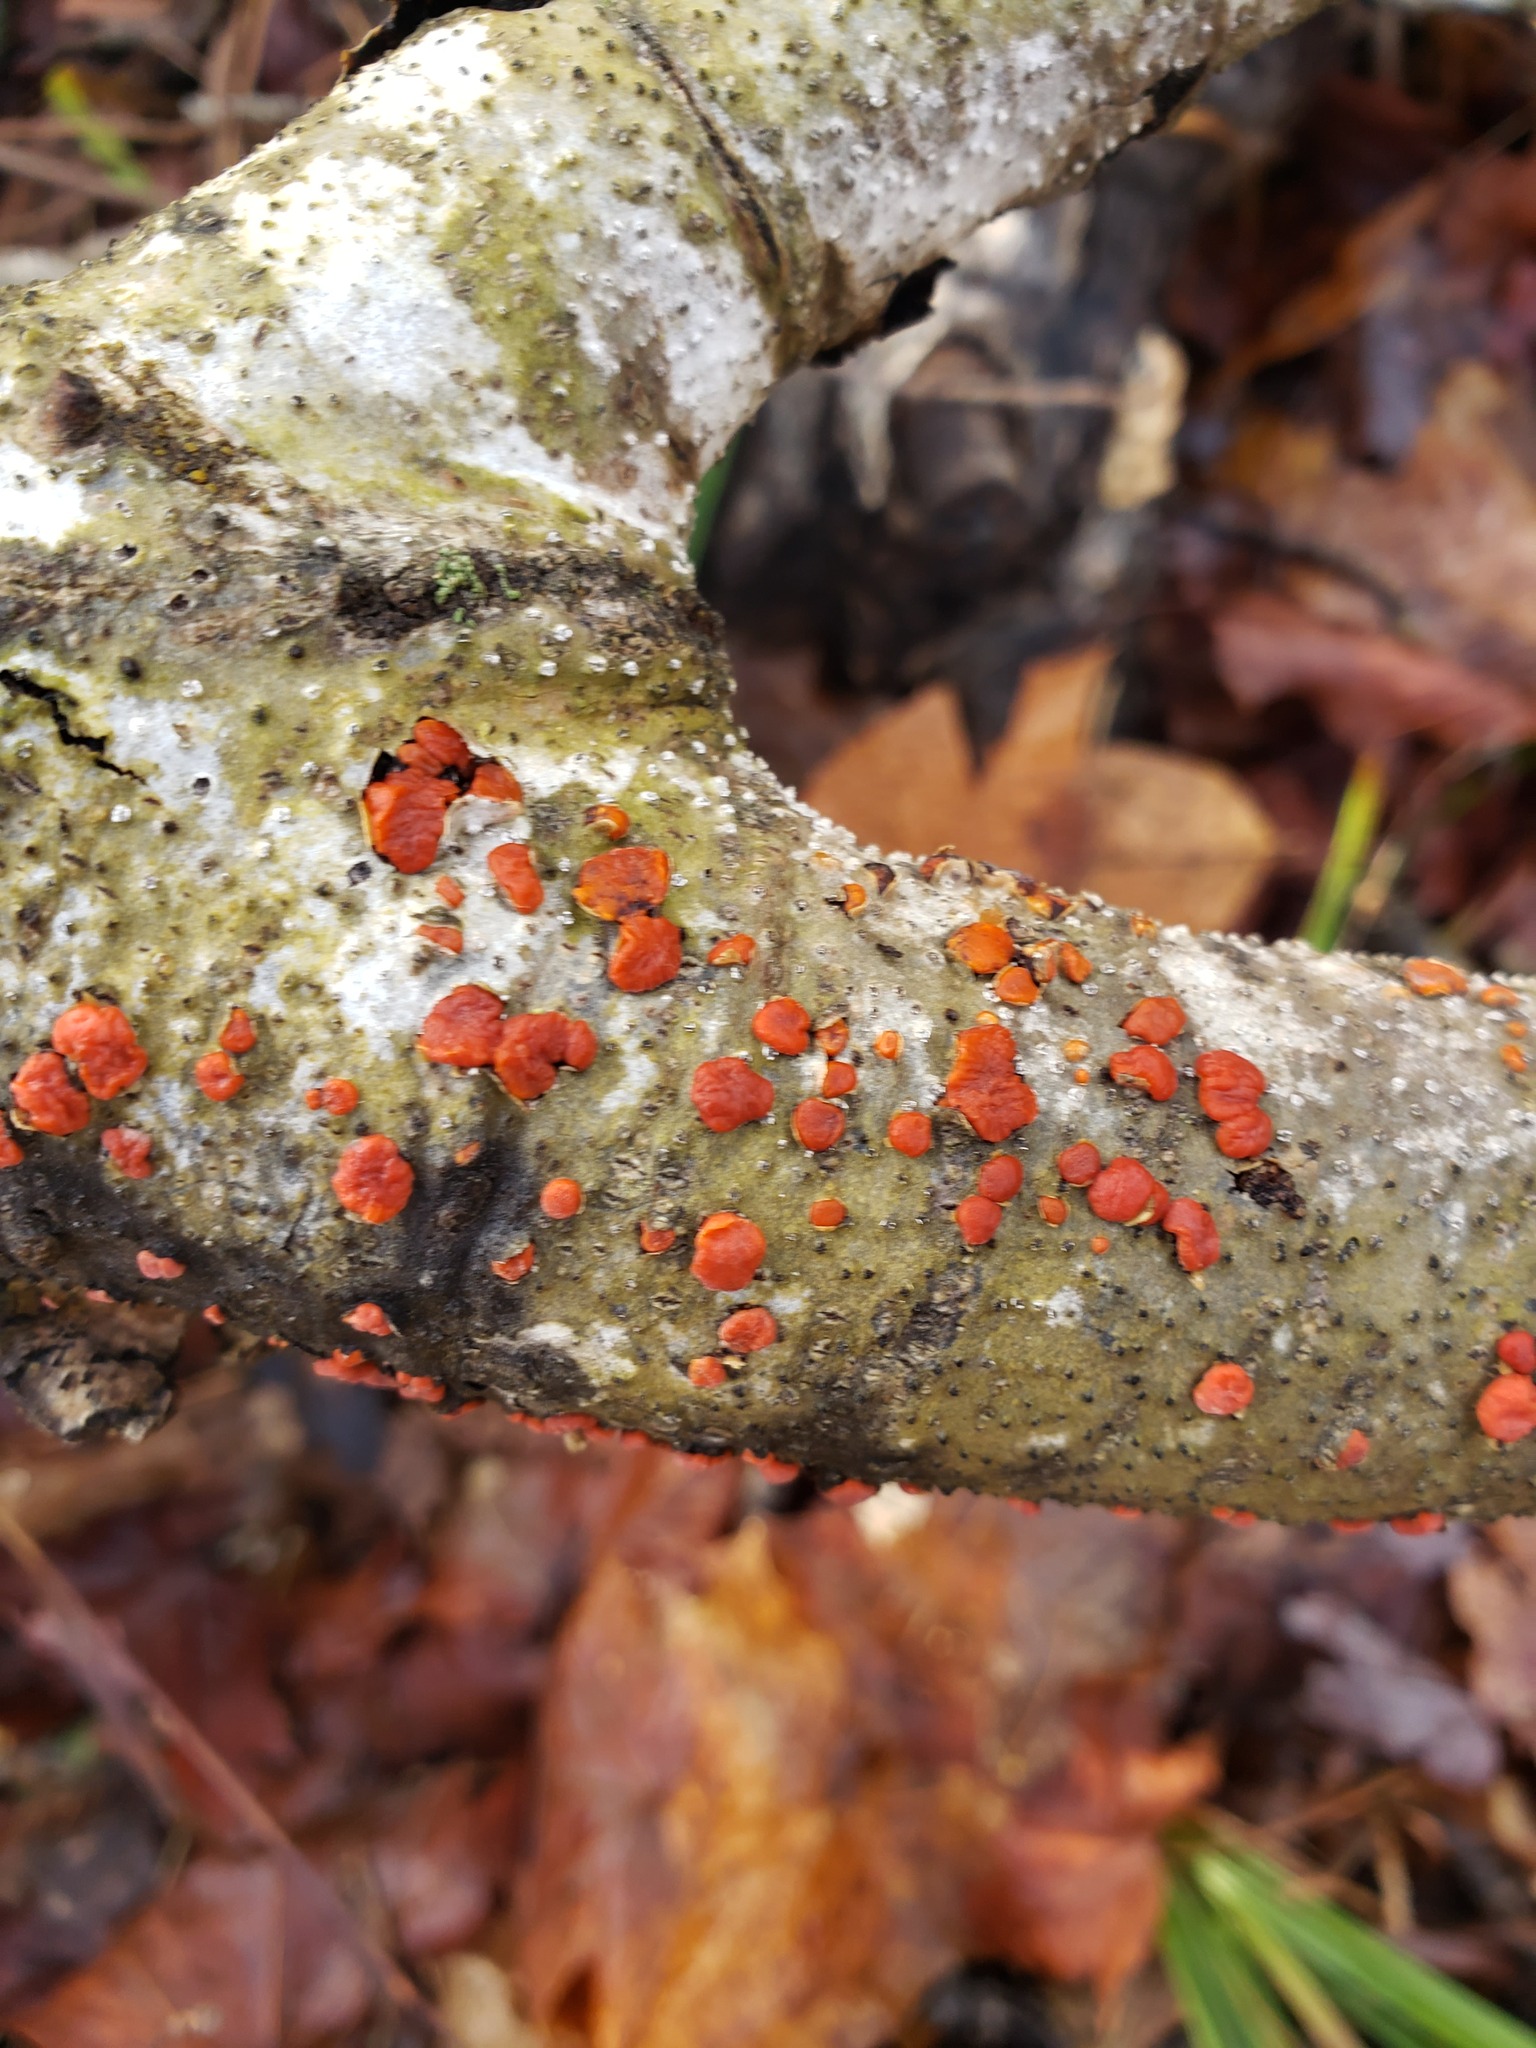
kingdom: Fungi
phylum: Basidiomycota
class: Agaricomycetes
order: Russulales
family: Peniophoraceae
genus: Peniophora
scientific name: Peniophora rufa
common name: Red tree brain fungus
